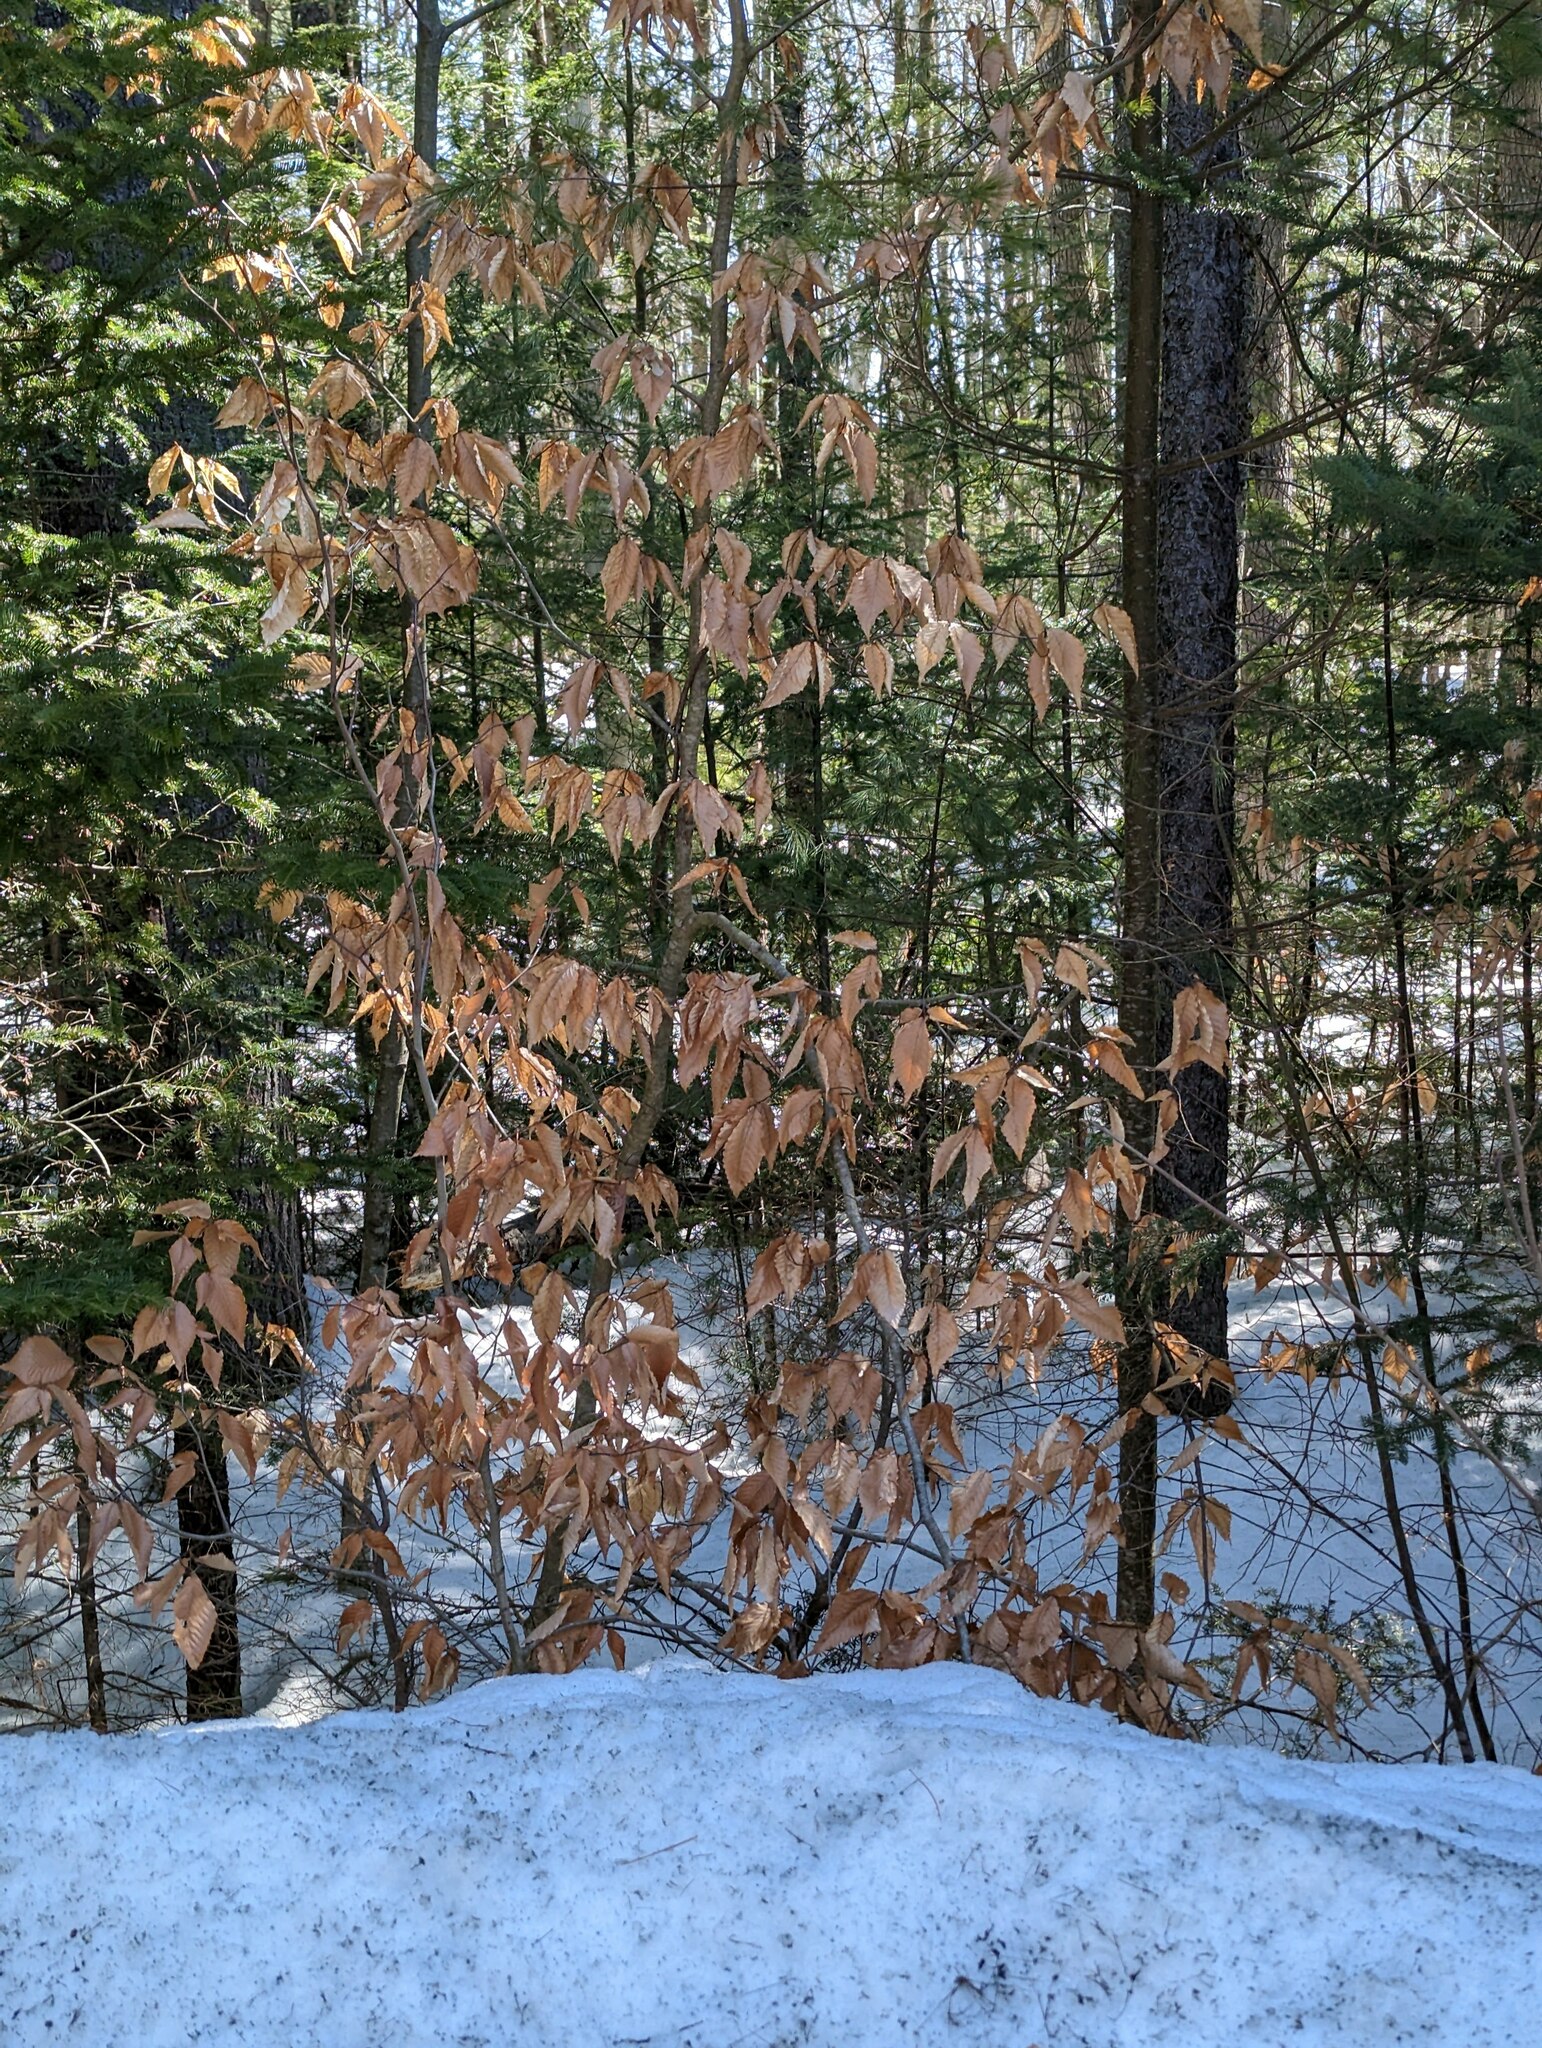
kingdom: Plantae
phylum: Tracheophyta
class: Magnoliopsida
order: Fagales
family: Fagaceae
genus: Fagus
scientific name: Fagus grandifolia
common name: American beech
